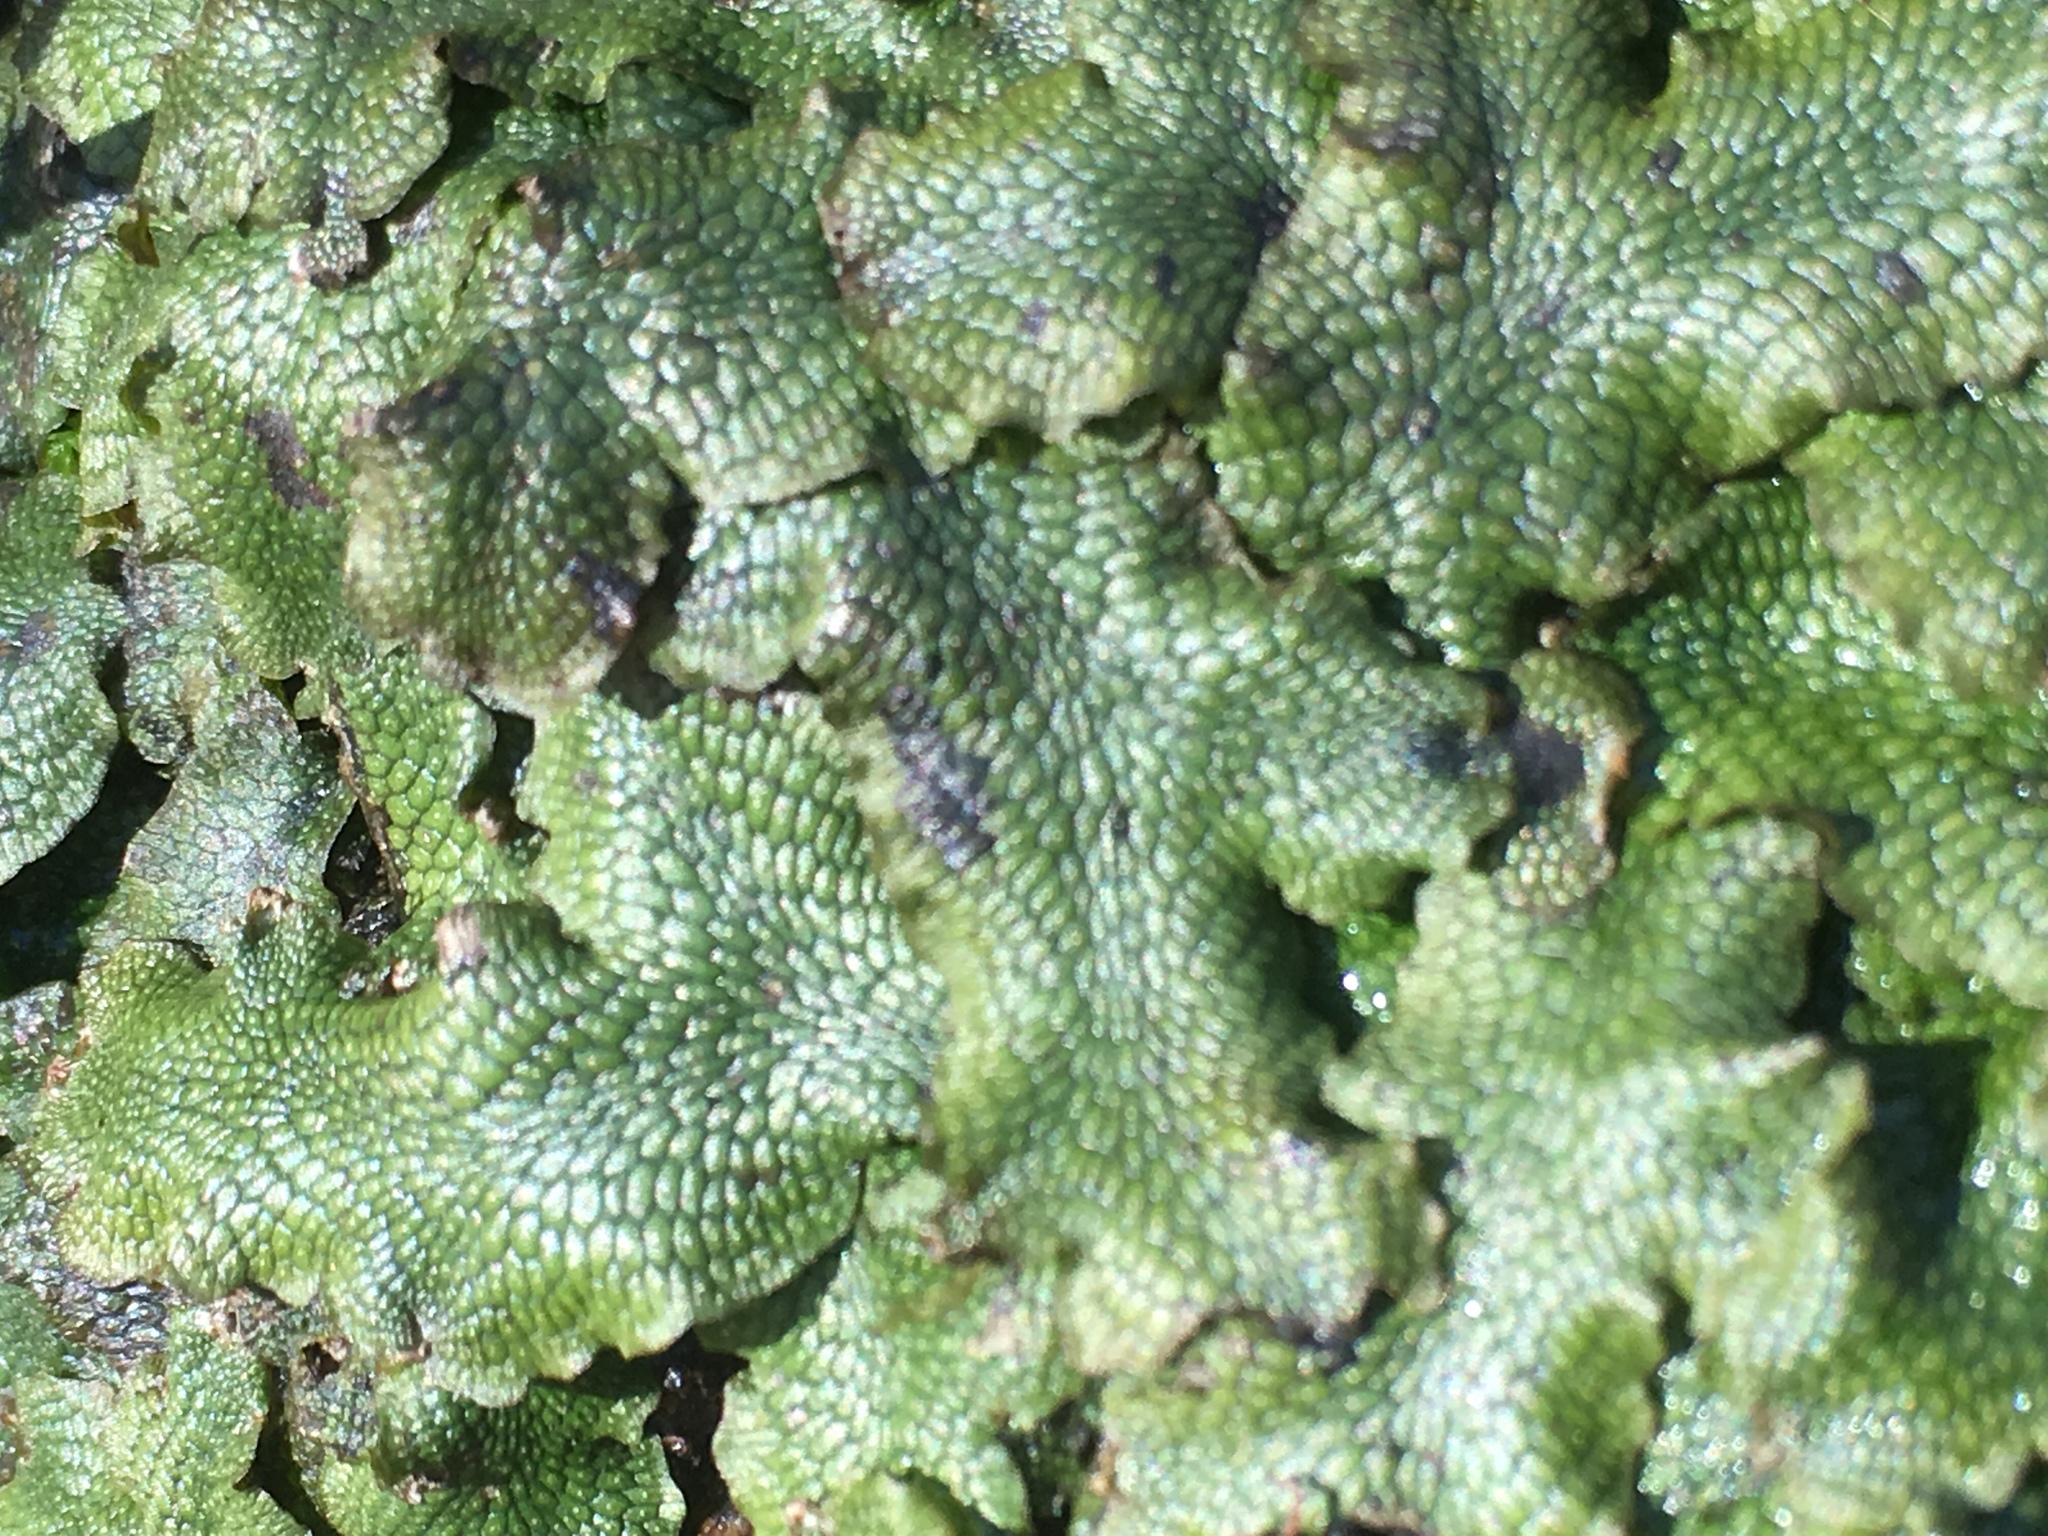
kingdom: Plantae
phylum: Marchantiophyta
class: Marchantiopsida
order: Marchantiales
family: Conocephalaceae
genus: Conocephalum
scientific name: Conocephalum salebrosum
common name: Cat-tongue liverwort
